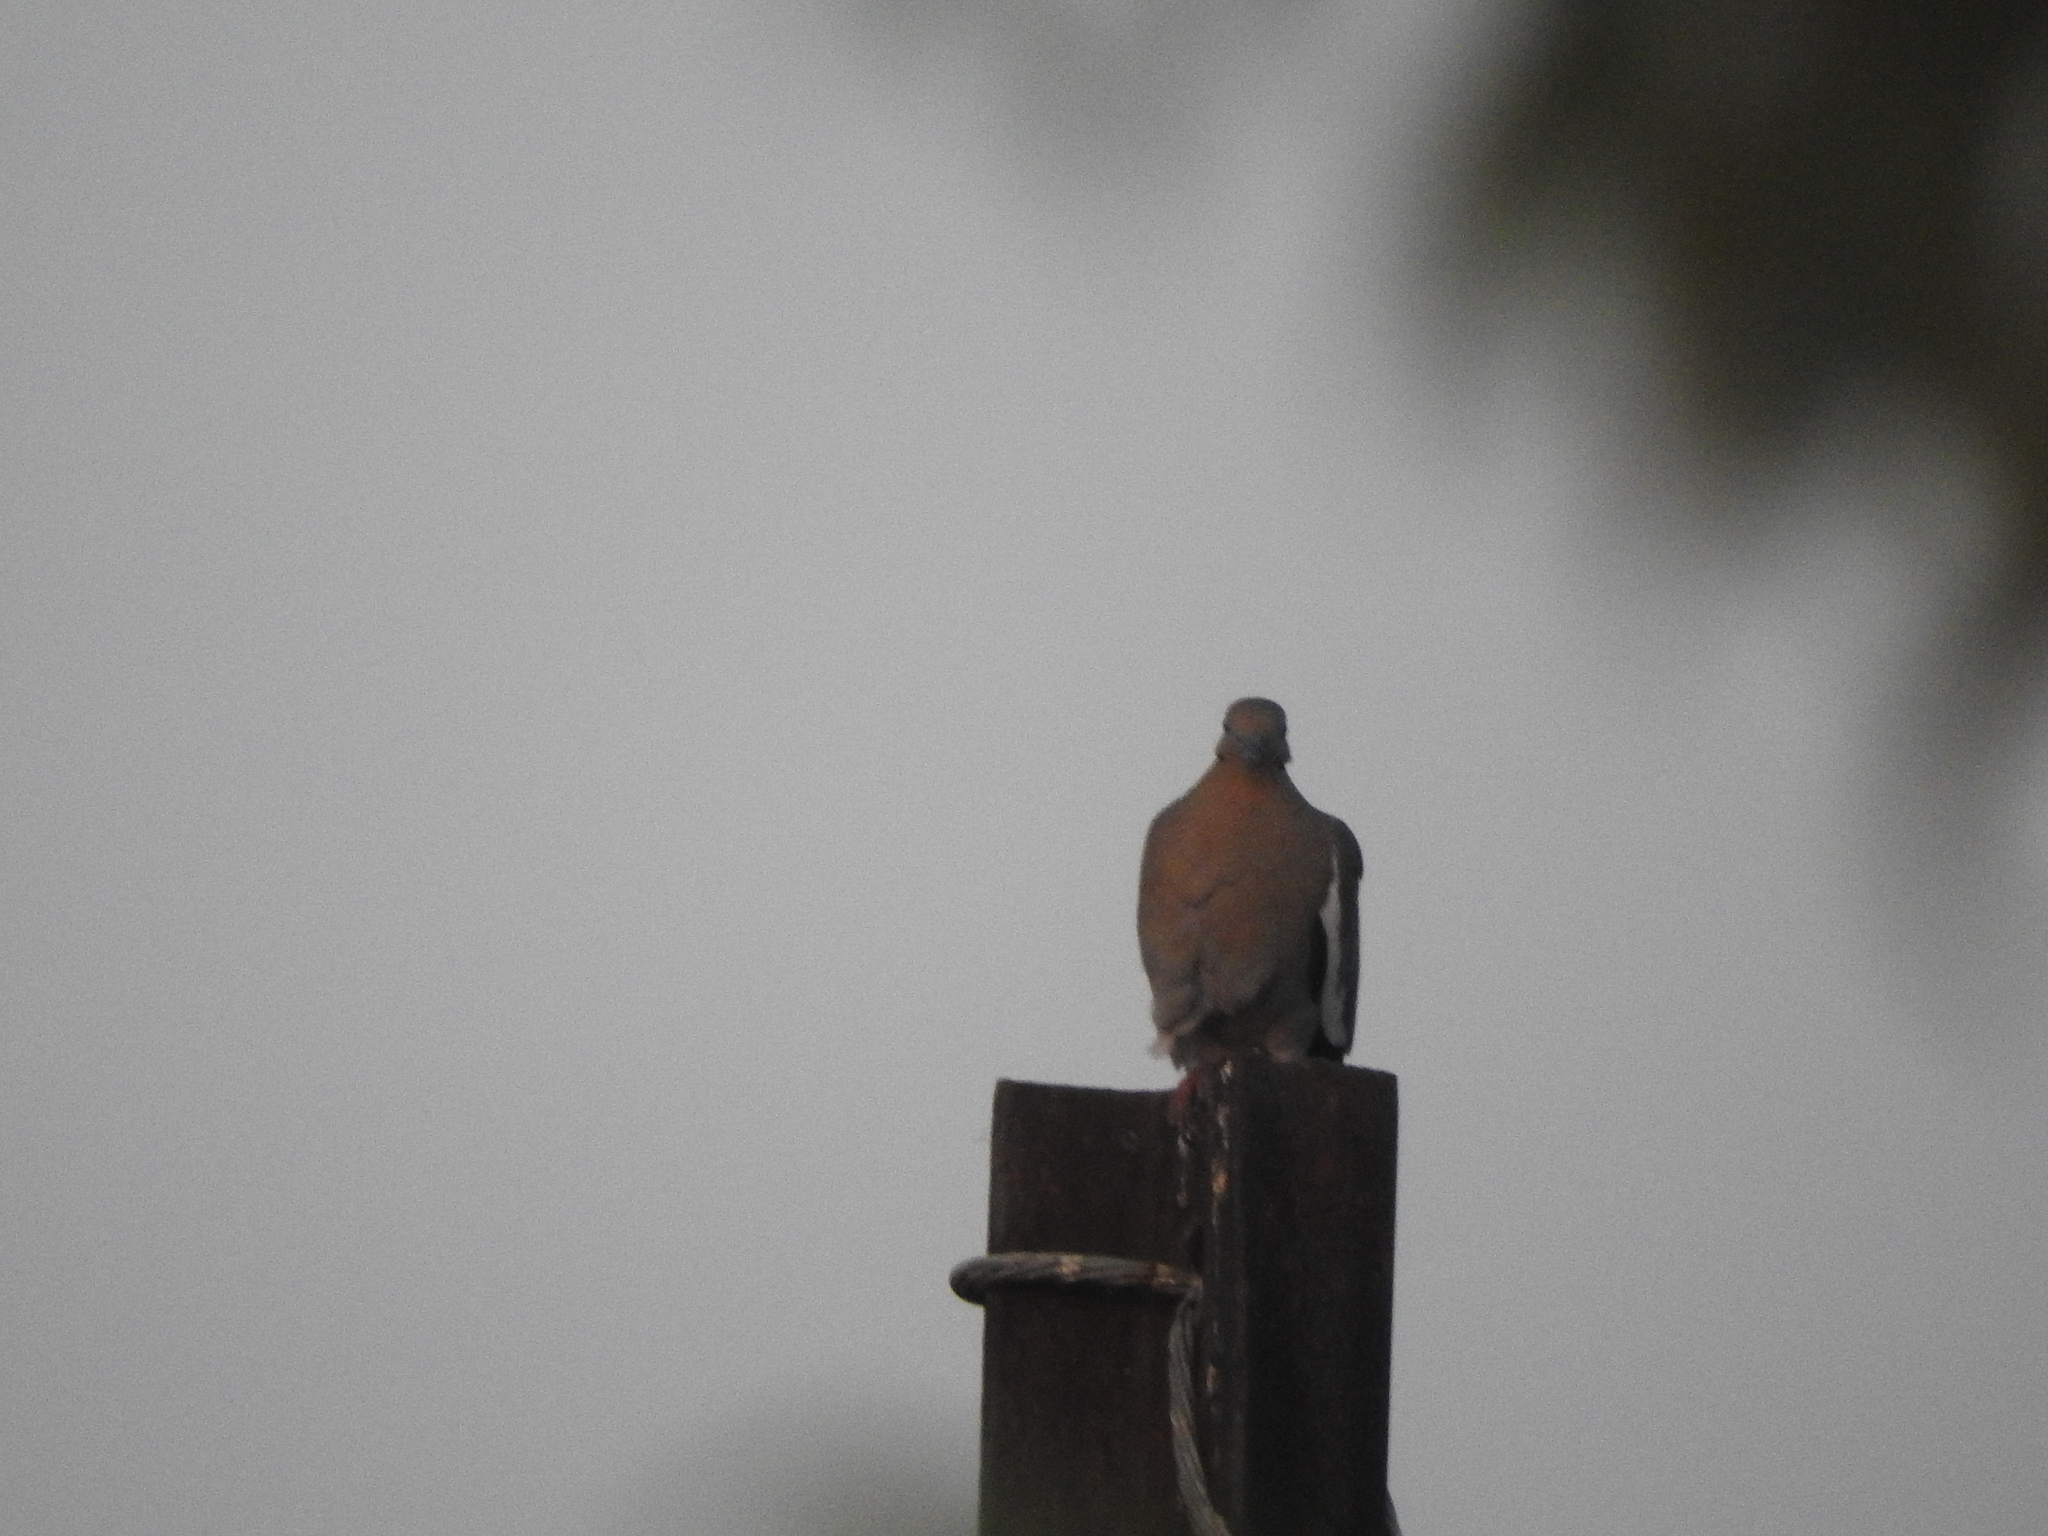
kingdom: Animalia
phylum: Chordata
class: Aves
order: Columbiformes
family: Columbidae
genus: Zenaida
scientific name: Zenaida asiatica
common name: White-winged dove
